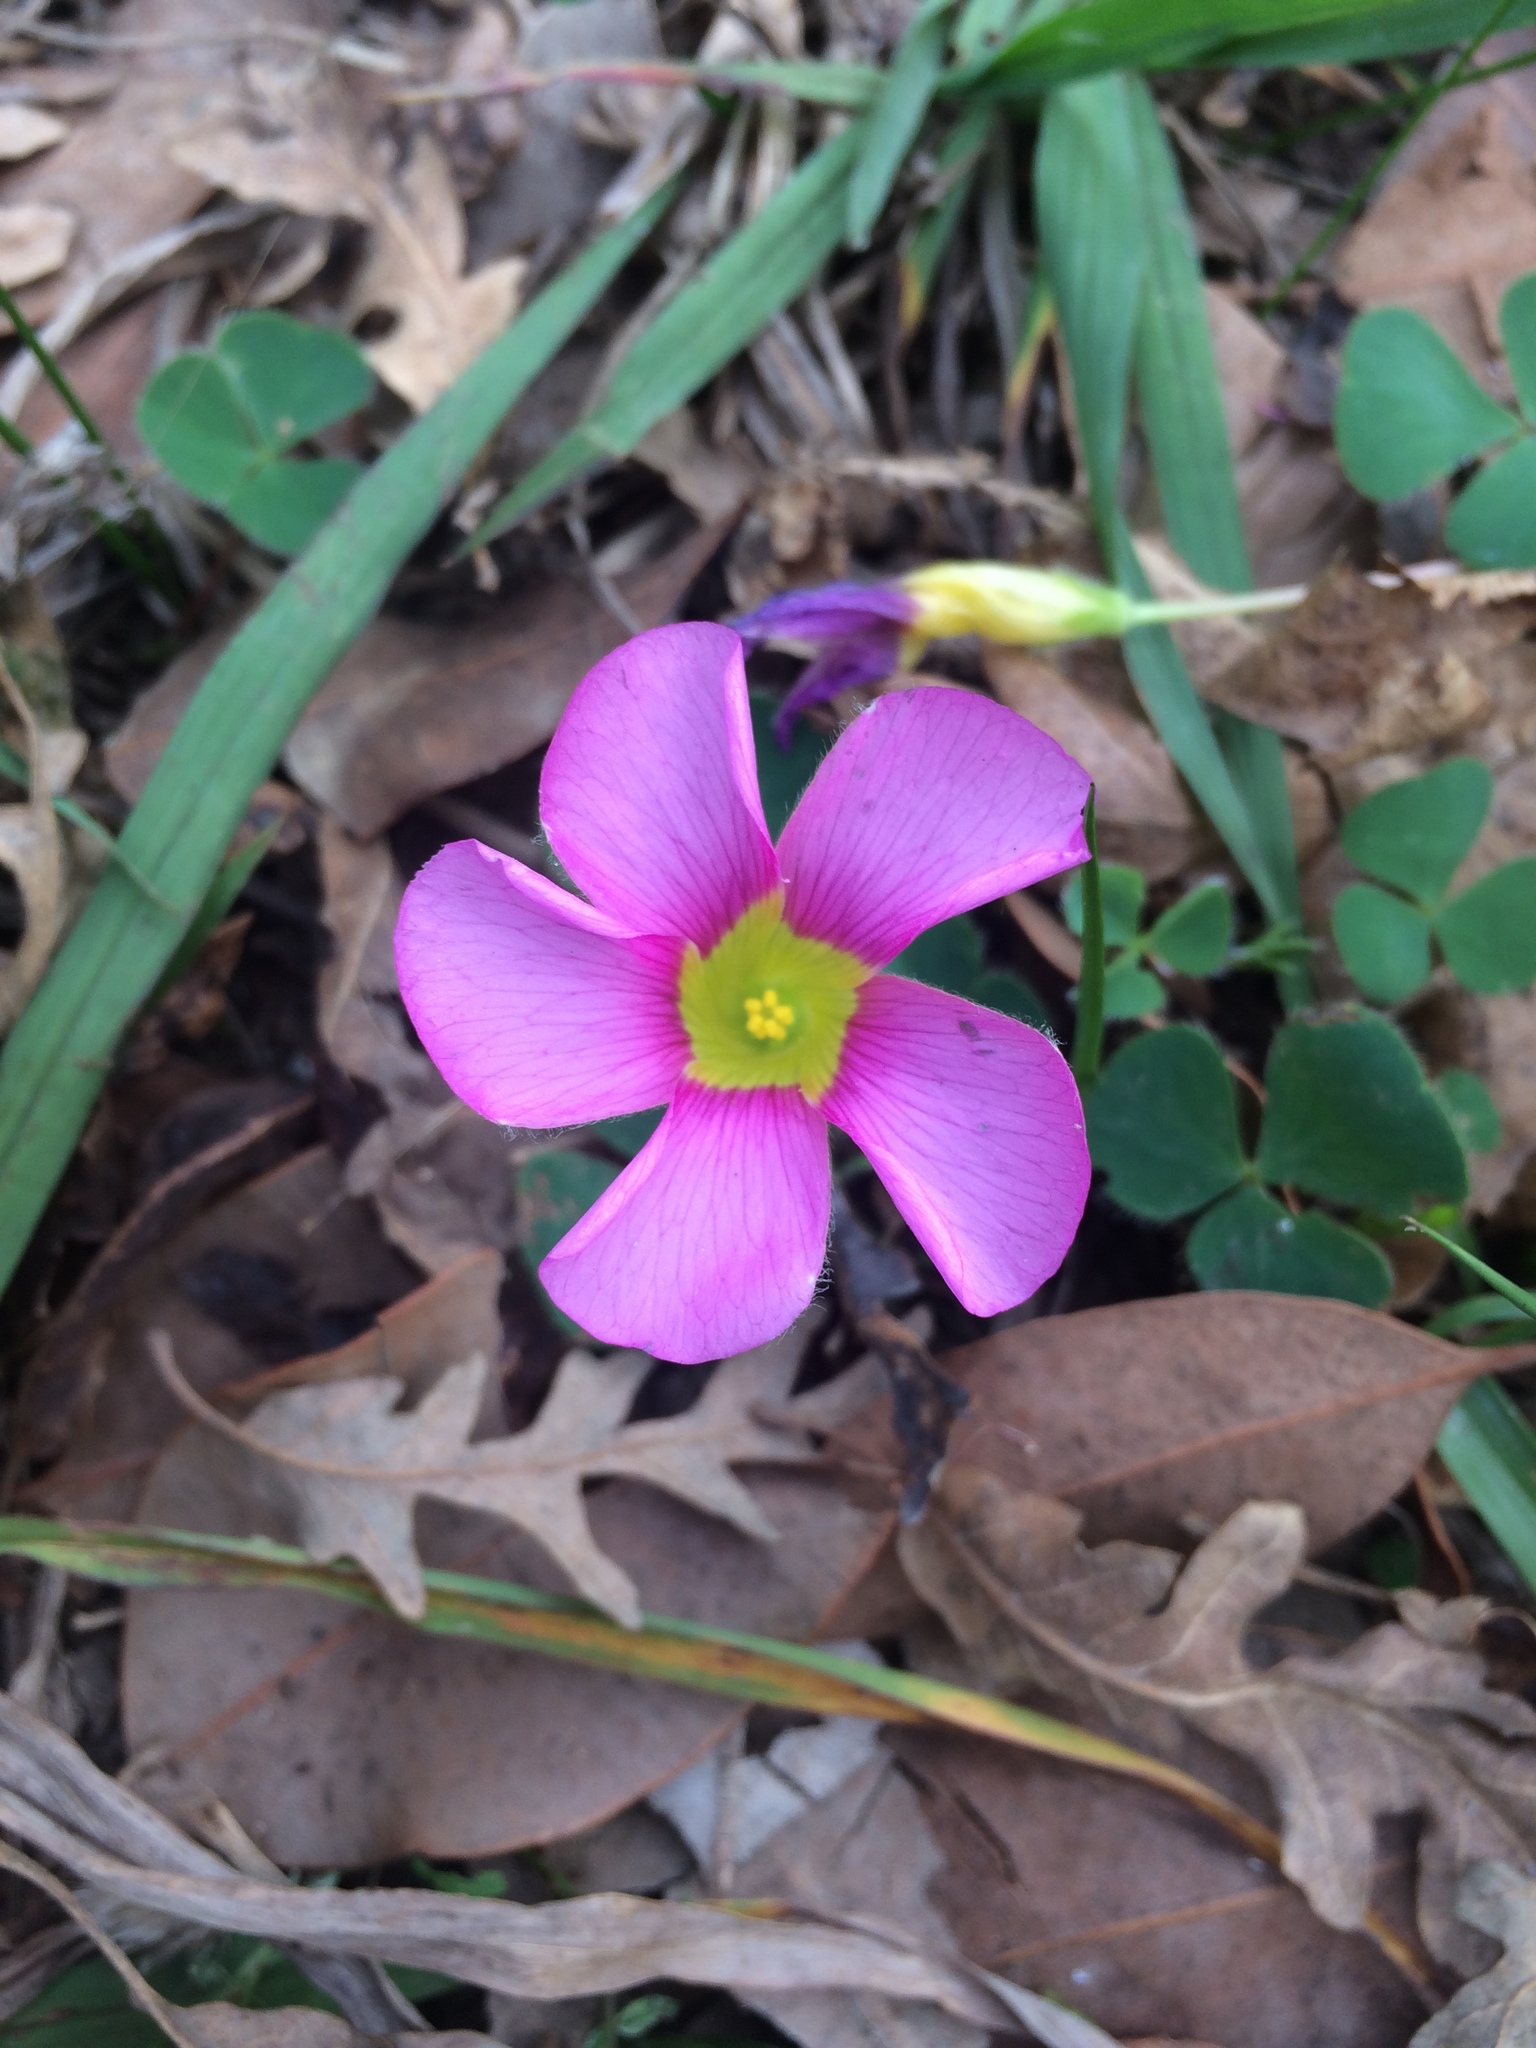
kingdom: Plantae
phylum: Tracheophyta
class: Magnoliopsida
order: Oxalidales
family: Oxalidaceae
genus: Oxalis
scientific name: Oxalis purpurea
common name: Purple woodsorrel
